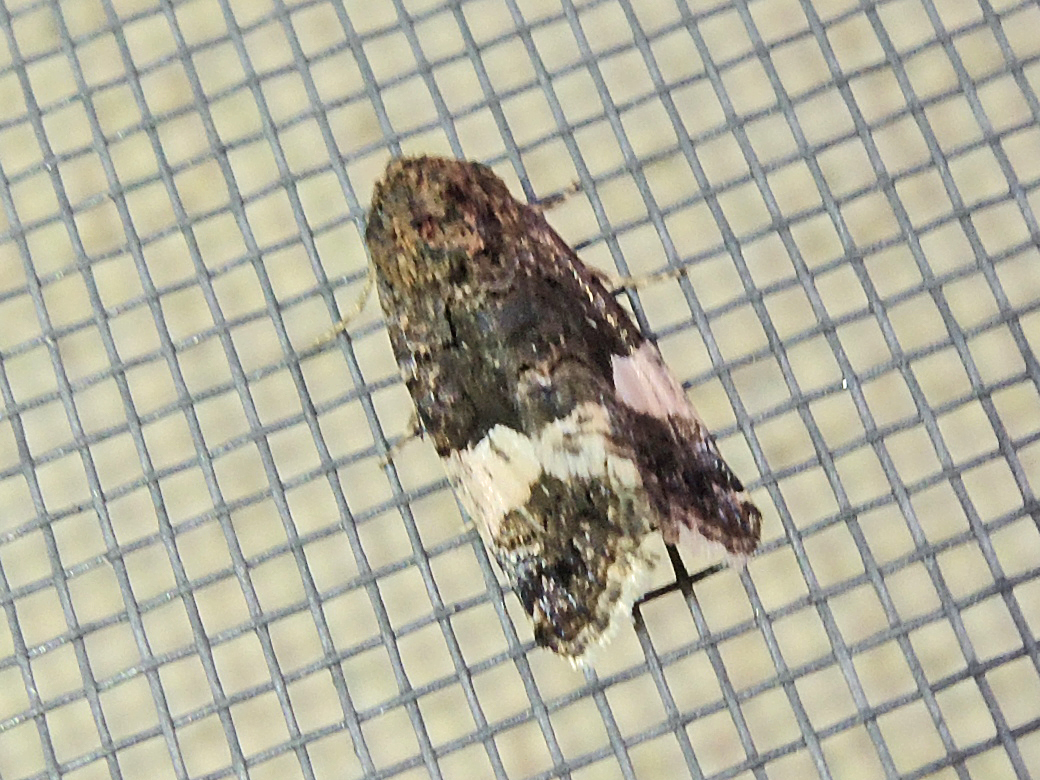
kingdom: Animalia
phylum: Arthropoda
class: Insecta
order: Lepidoptera
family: Erebidae
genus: Tyta
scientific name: Tyta luctuosa
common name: Four-spotted
